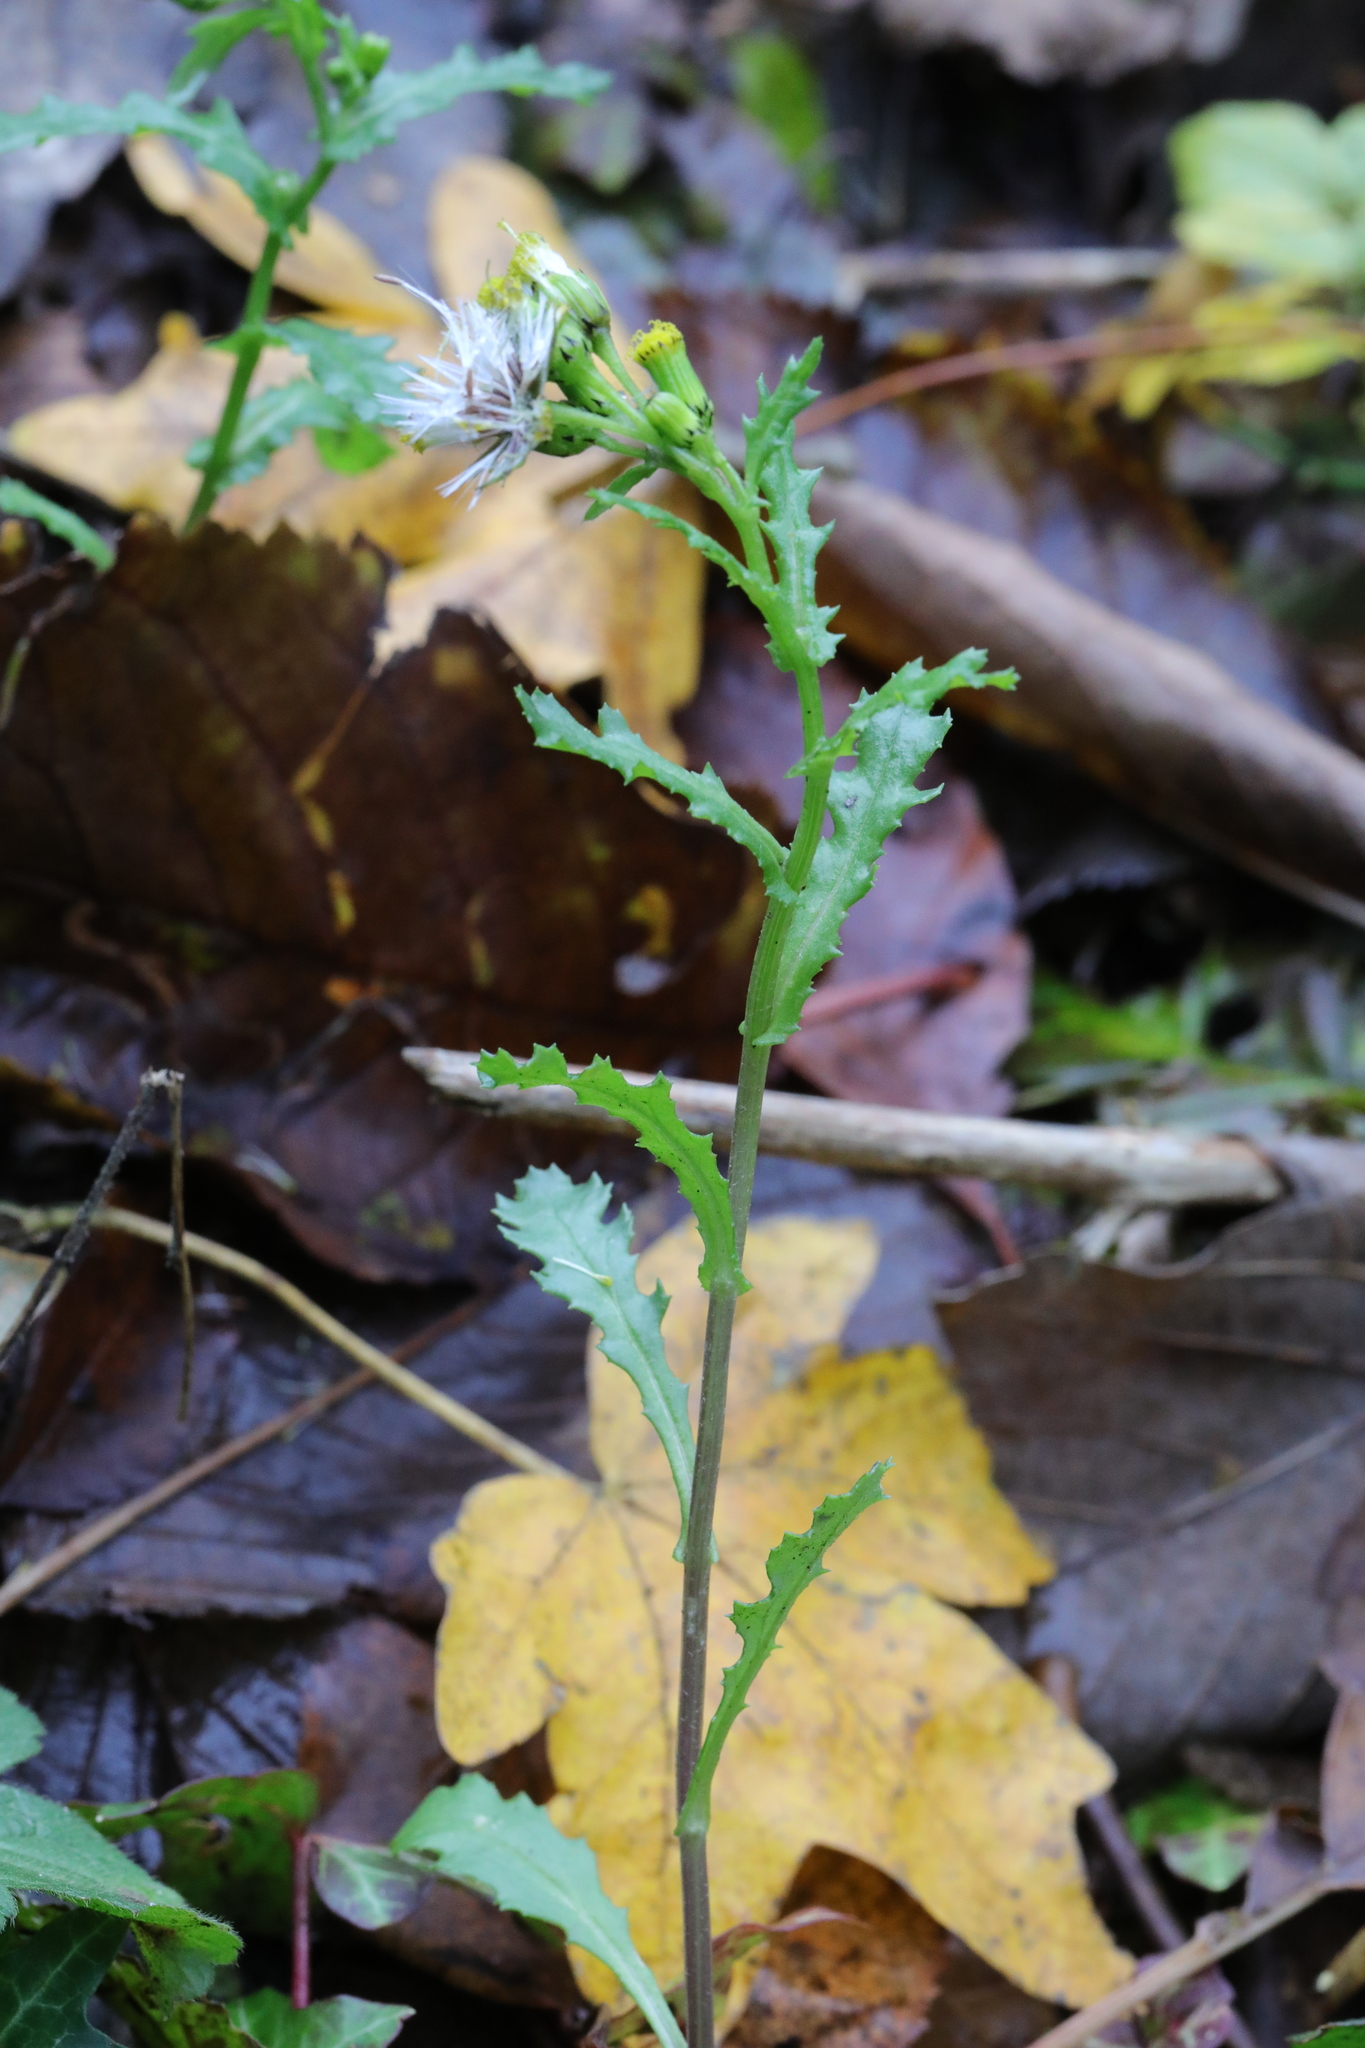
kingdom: Plantae
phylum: Tracheophyta
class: Magnoliopsida
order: Asterales
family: Asteraceae
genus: Senecio
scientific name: Senecio vulgaris
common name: Old-man-in-the-spring
